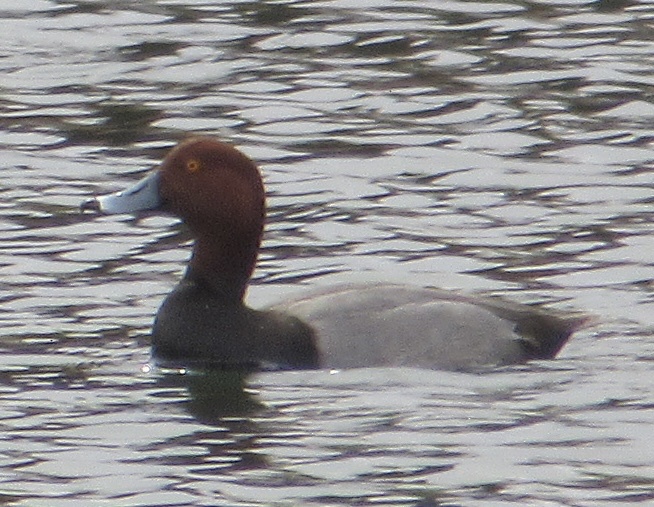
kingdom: Animalia
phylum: Chordata
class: Aves
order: Anseriformes
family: Anatidae
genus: Aythya
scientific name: Aythya americana
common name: Redhead
